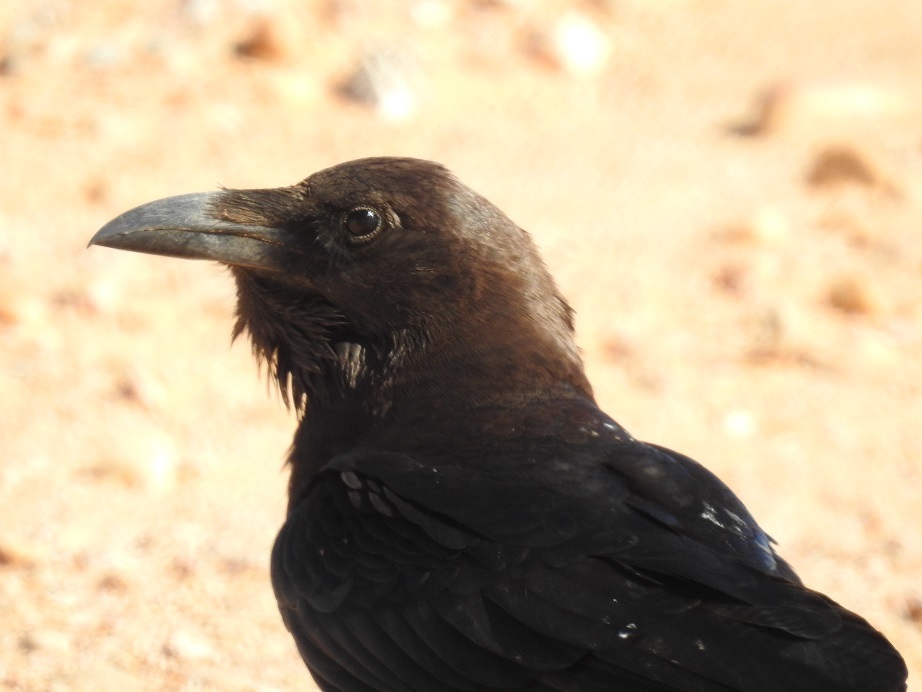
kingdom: Animalia
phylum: Chordata
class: Aves
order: Passeriformes
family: Corvidae
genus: Corvus
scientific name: Corvus ruficollis
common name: Brown-necked raven
